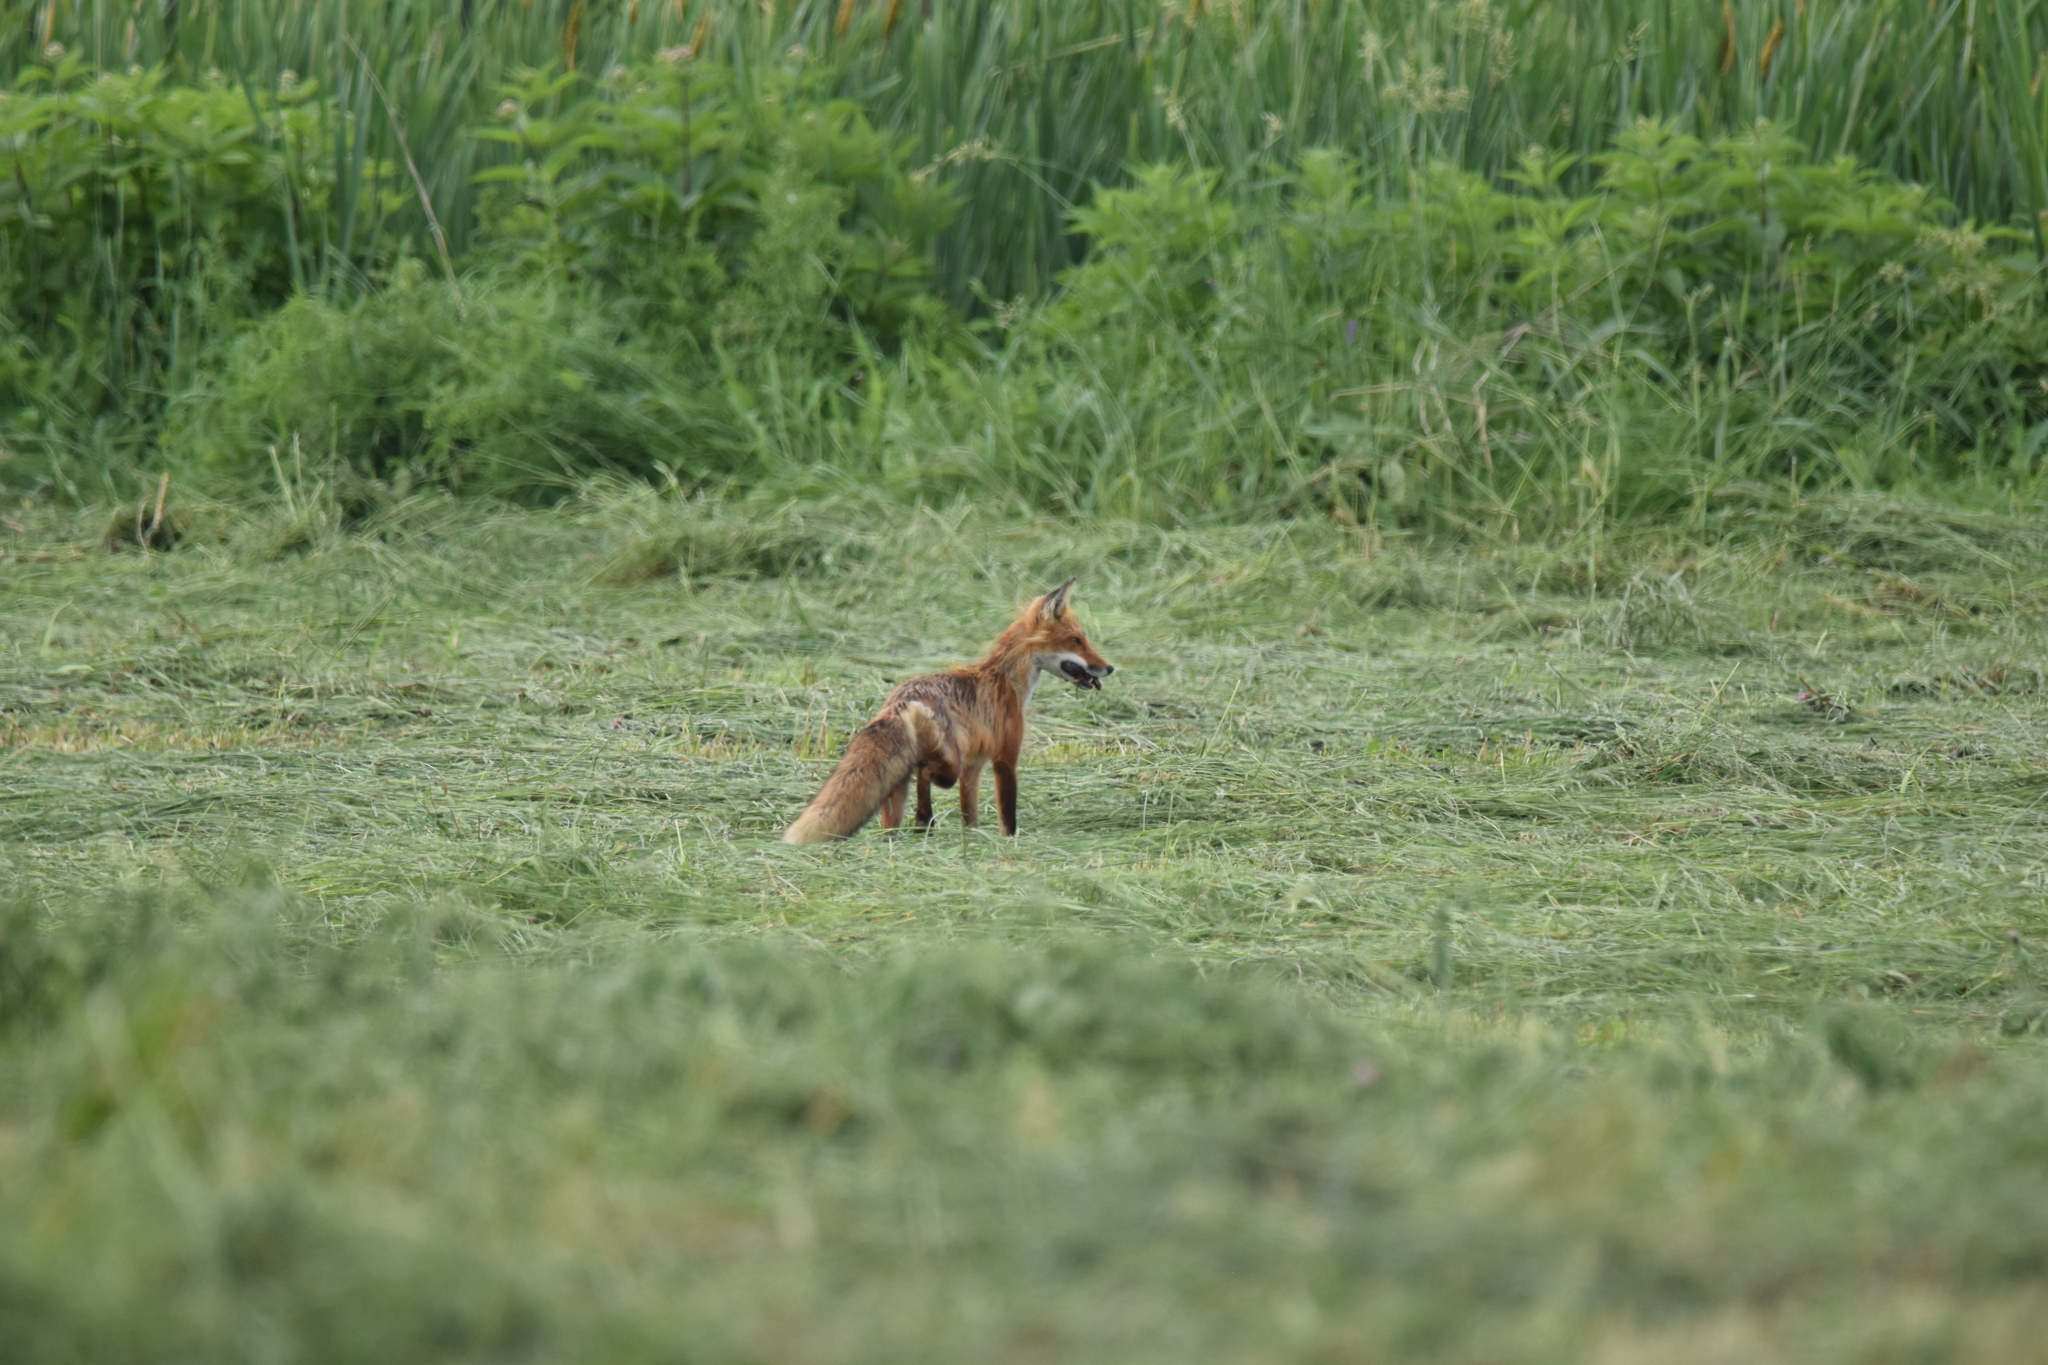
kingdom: Animalia
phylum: Chordata
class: Mammalia
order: Carnivora
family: Canidae
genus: Vulpes
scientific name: Vulpes vulpes
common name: Red fox
